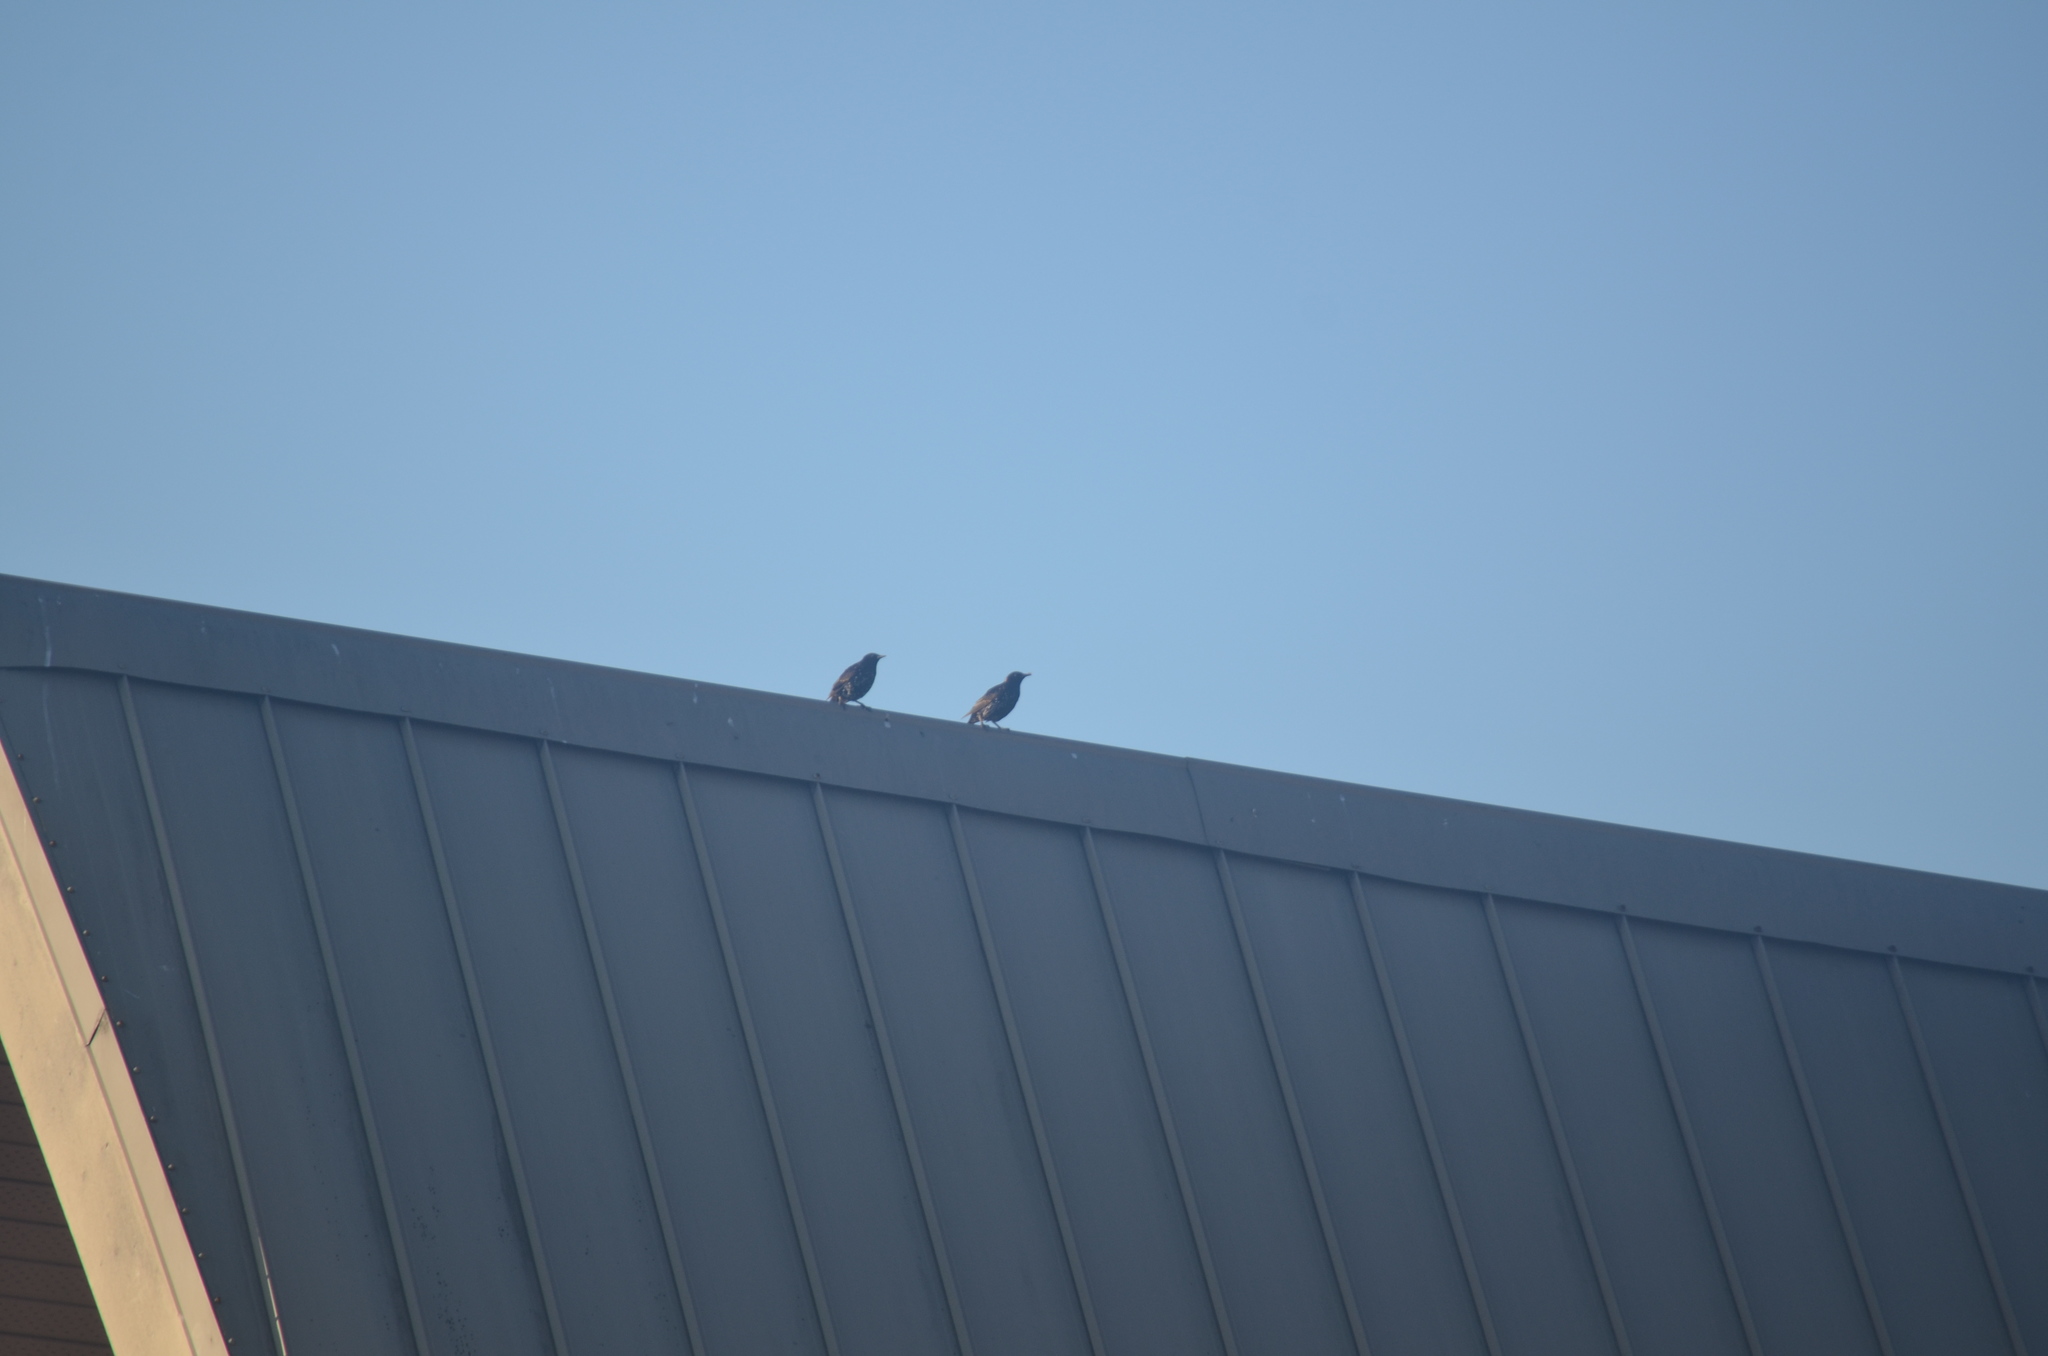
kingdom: Animalia
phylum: Chordata
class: Aves
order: Passeriformes
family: Sturnidae
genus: Sturnus
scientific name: Sturnus vulgaris
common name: Common starling
